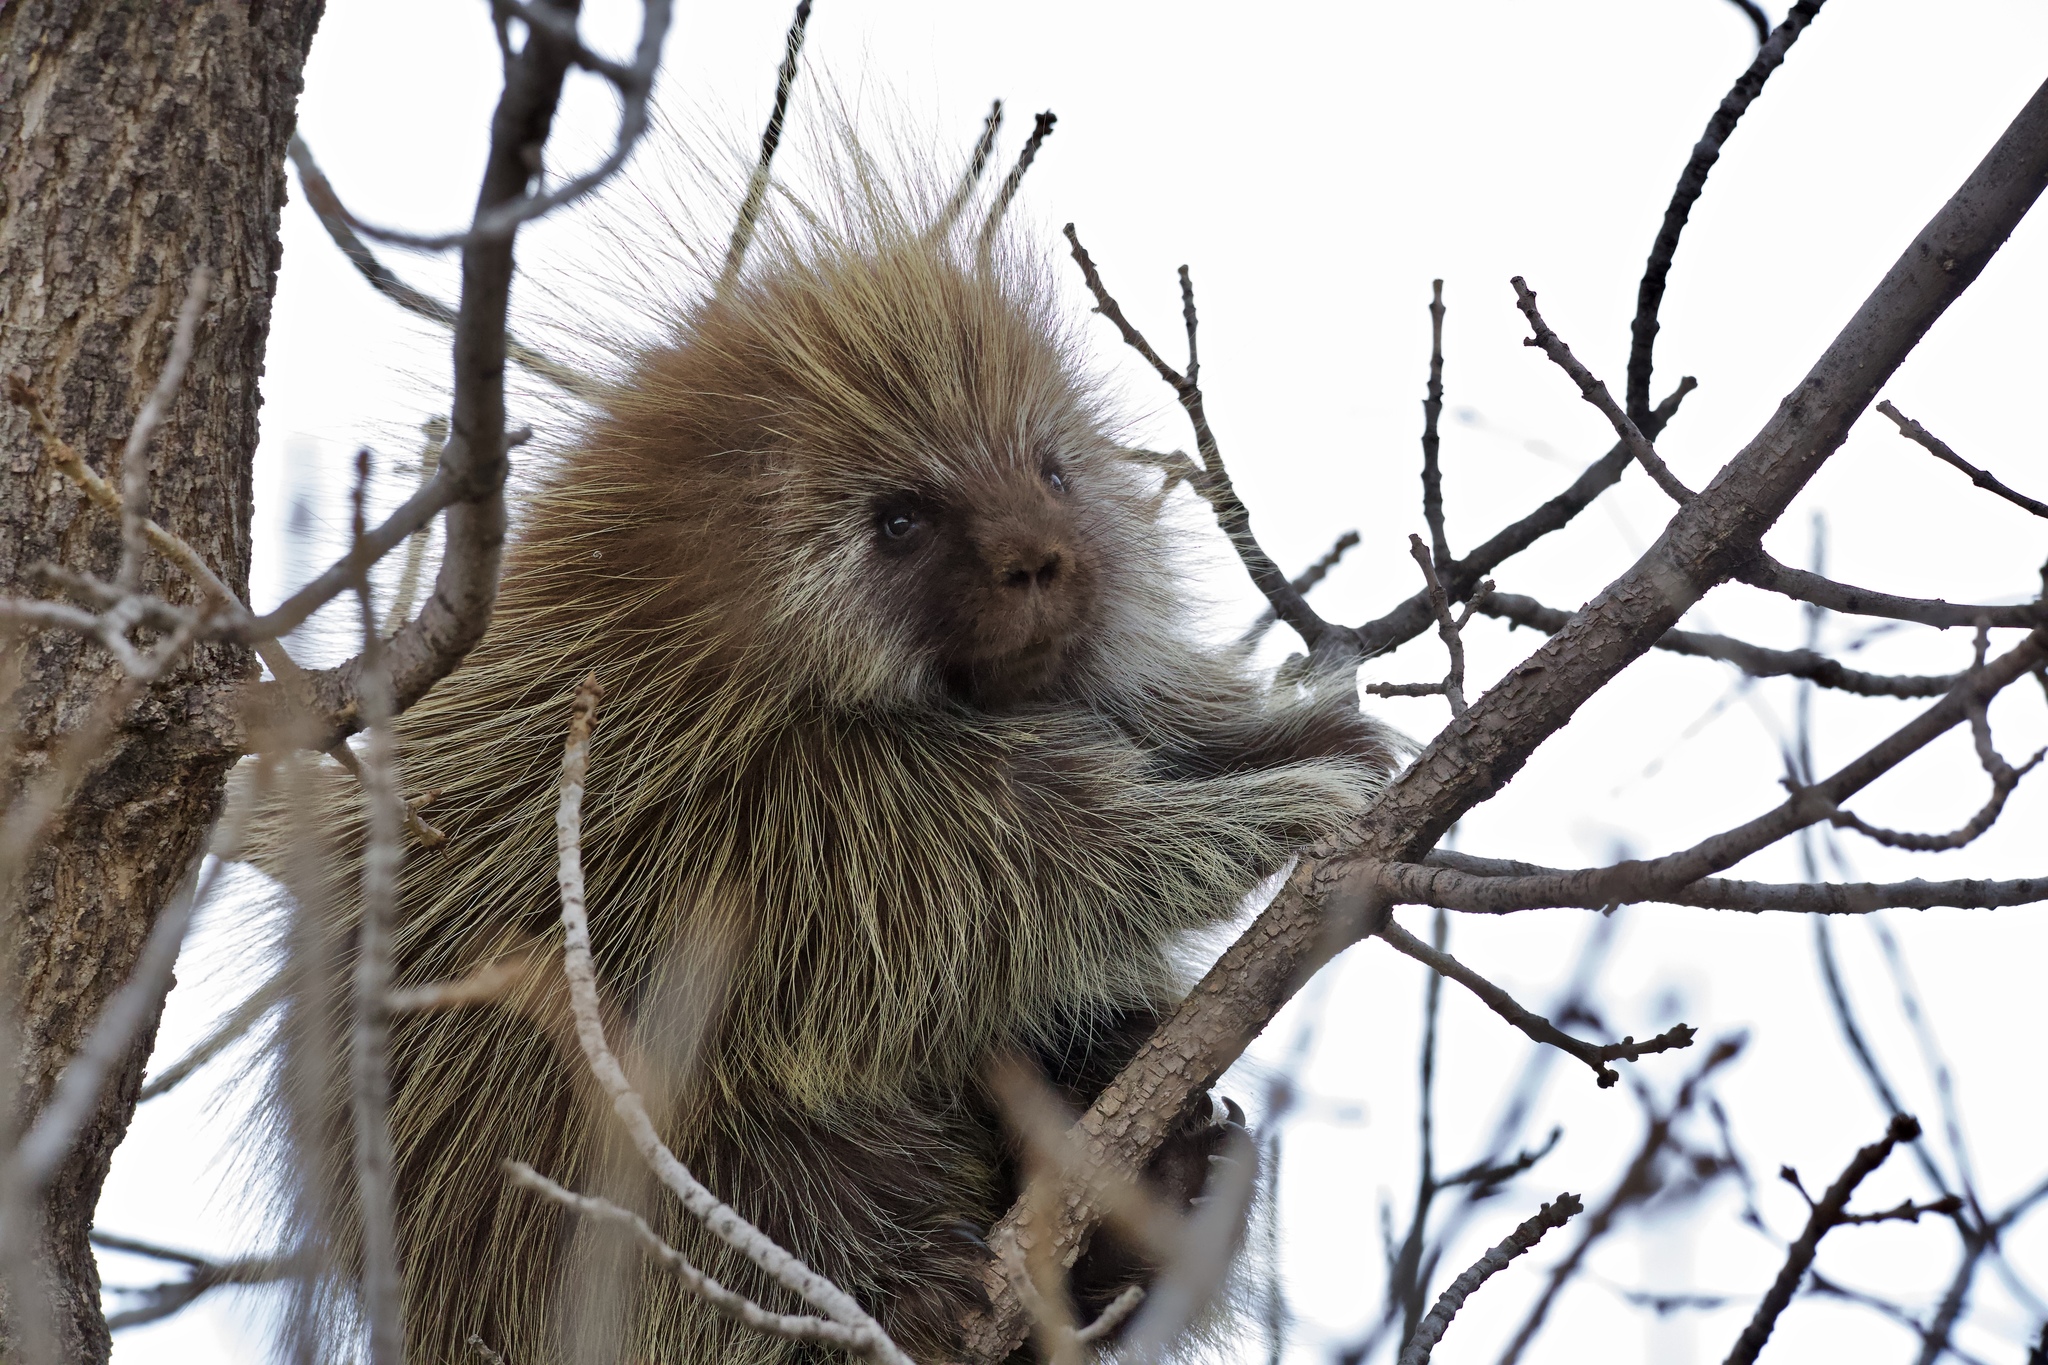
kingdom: Animalia
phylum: Chordata
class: Mammalia
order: Rodentia
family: Erethizontidae
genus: Erethizon
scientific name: Erethizon dorsatus
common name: North american porcupine
